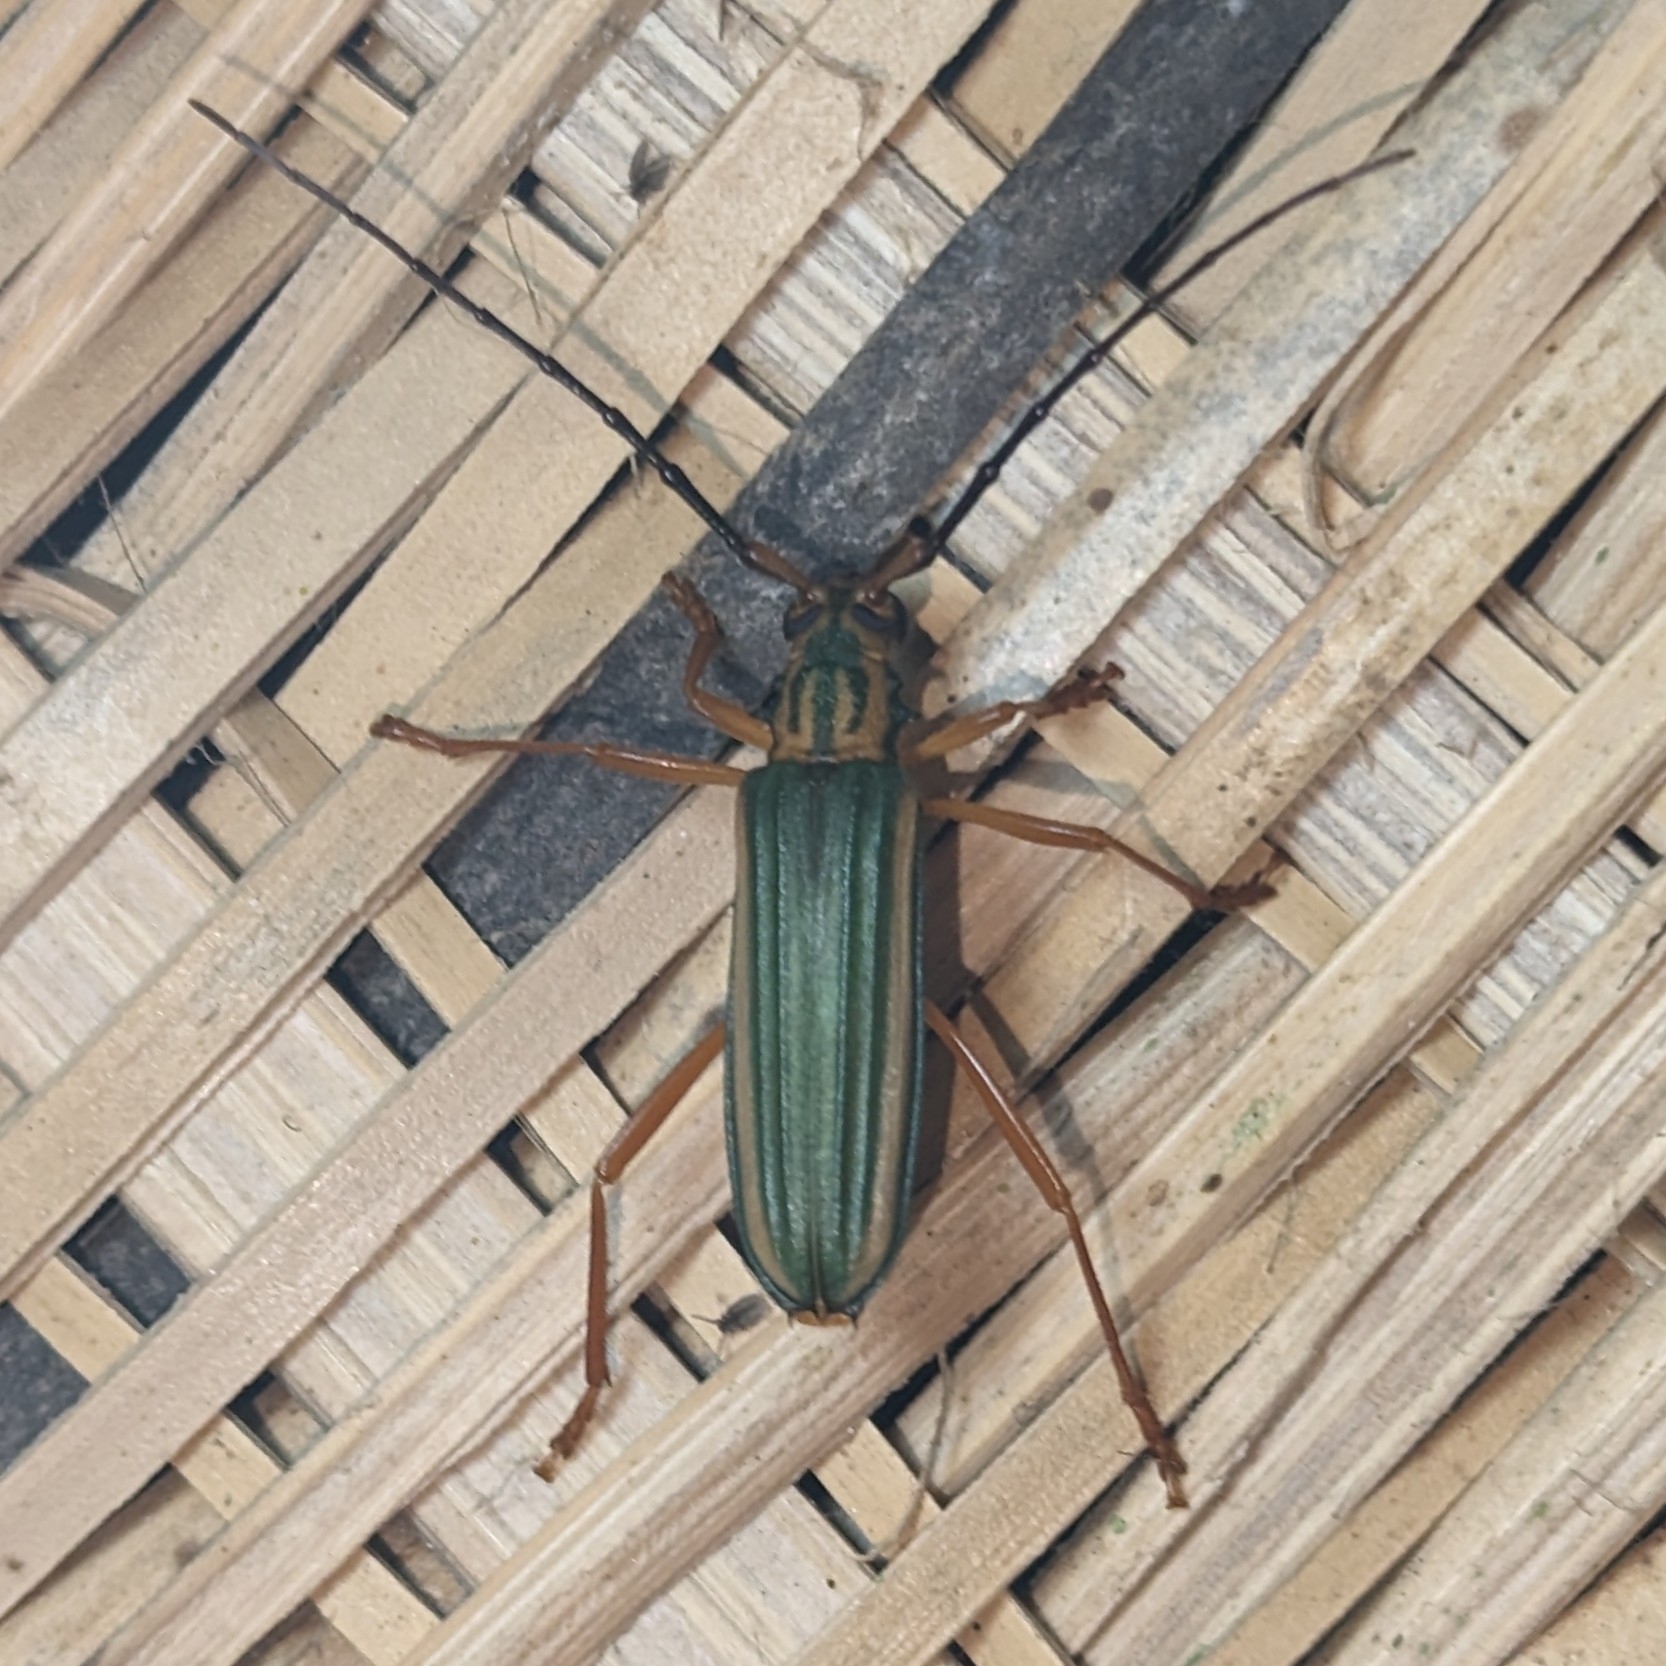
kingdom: Animalia
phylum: Arthropoda
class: Insecta
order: Coleoptera
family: Cerambycidae
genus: Chlorida
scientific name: Chlorida festiva
